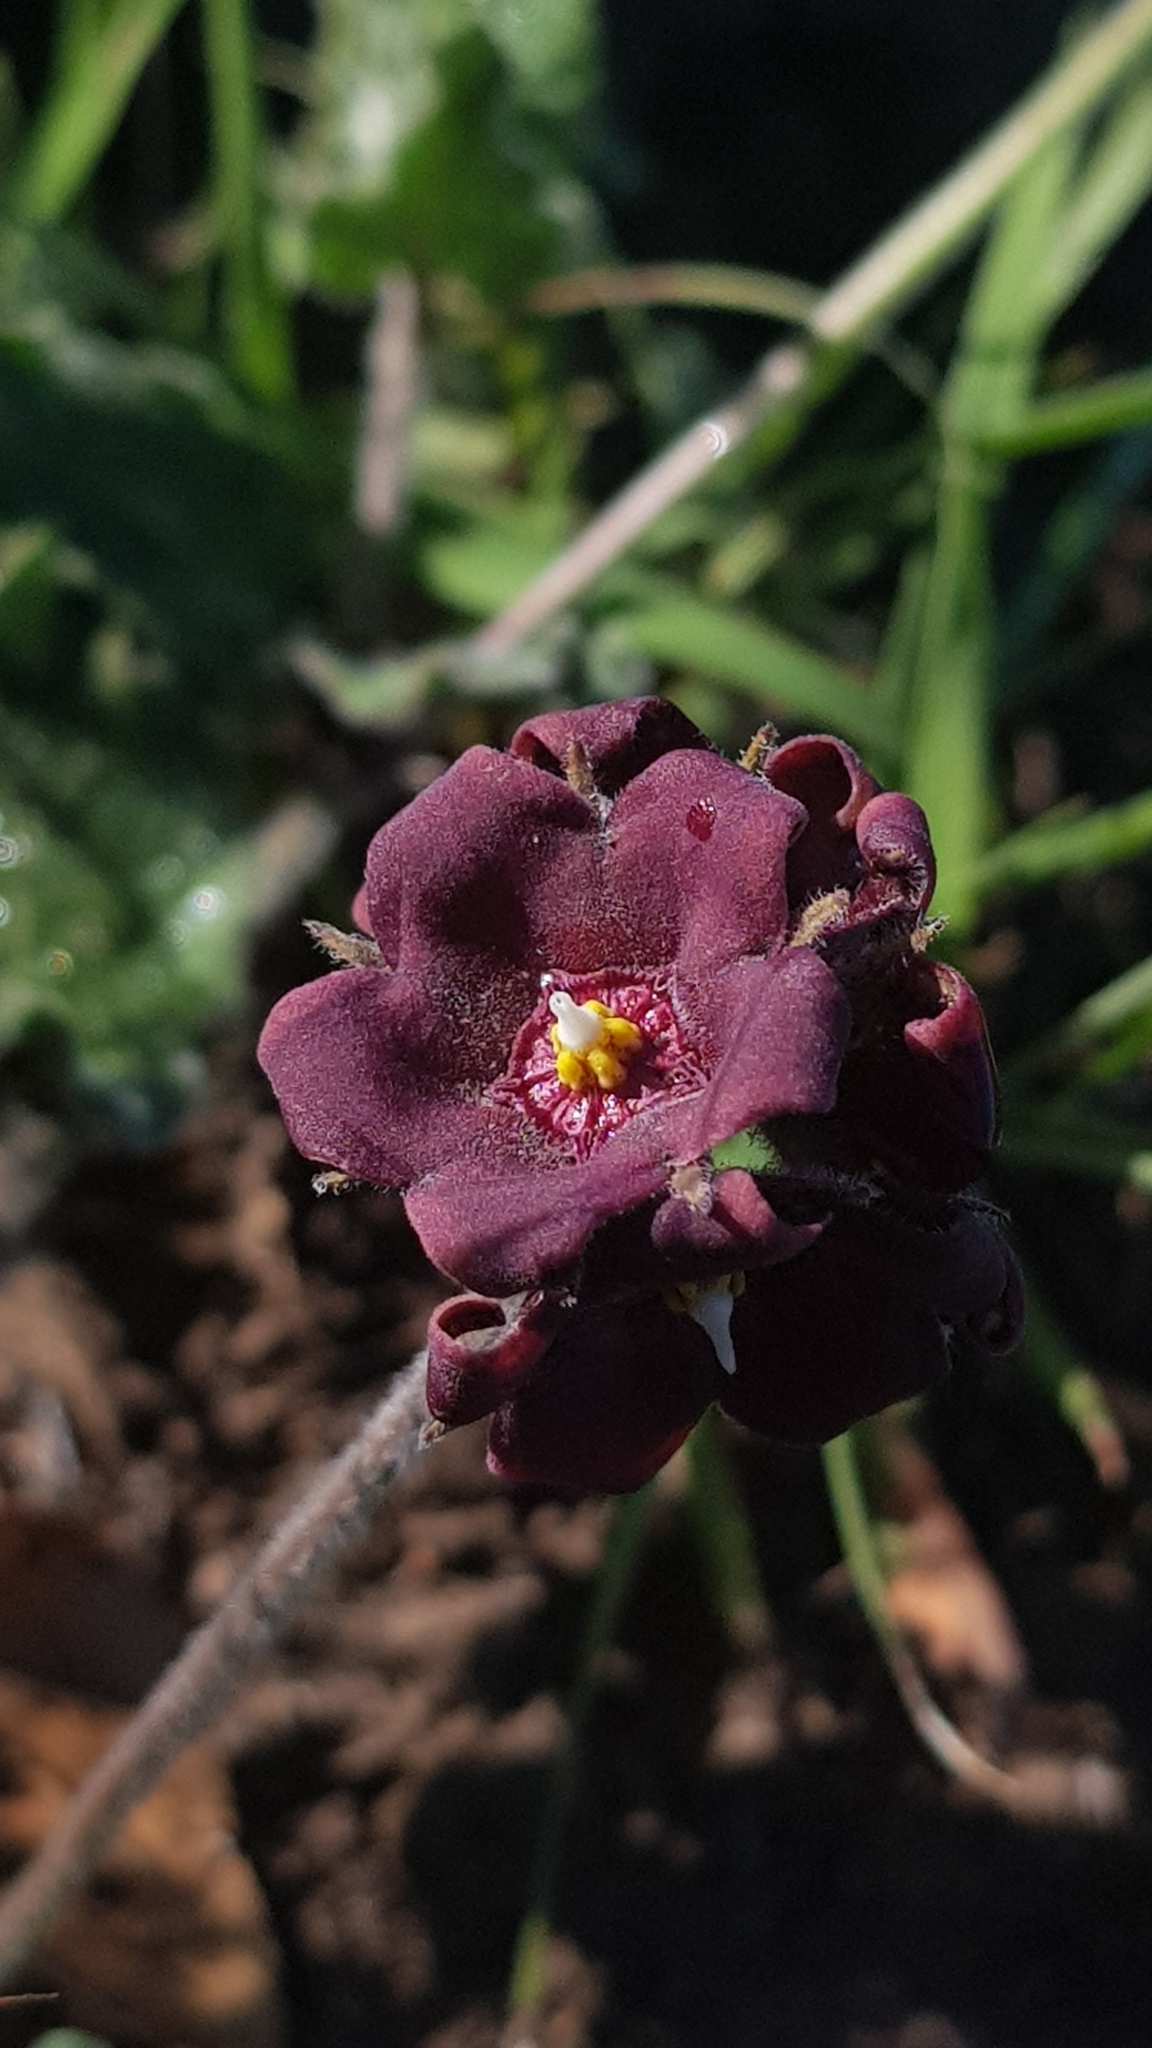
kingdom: Plantae
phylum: Tracheophyta
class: Magnoliopsida
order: Gentianales
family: Apocynaceae
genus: Oxypetalum
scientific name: Oxypetalum nigricans
